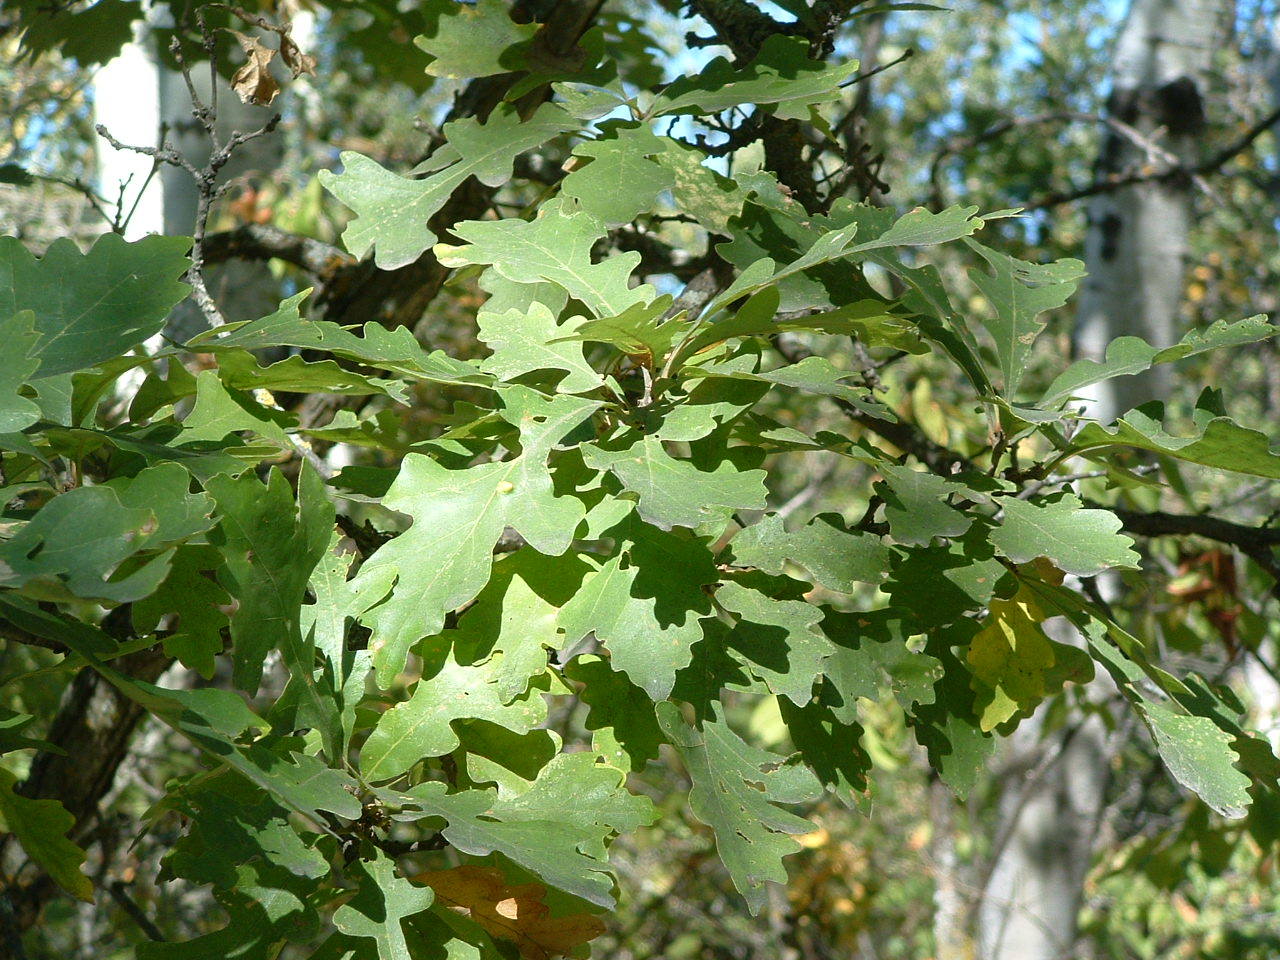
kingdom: Plantae
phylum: Tracheophyta
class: Magnoliopsida
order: Fagales
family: Fagaceae
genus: Quercus
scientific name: Quercus macrocarpa
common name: Bur oak
